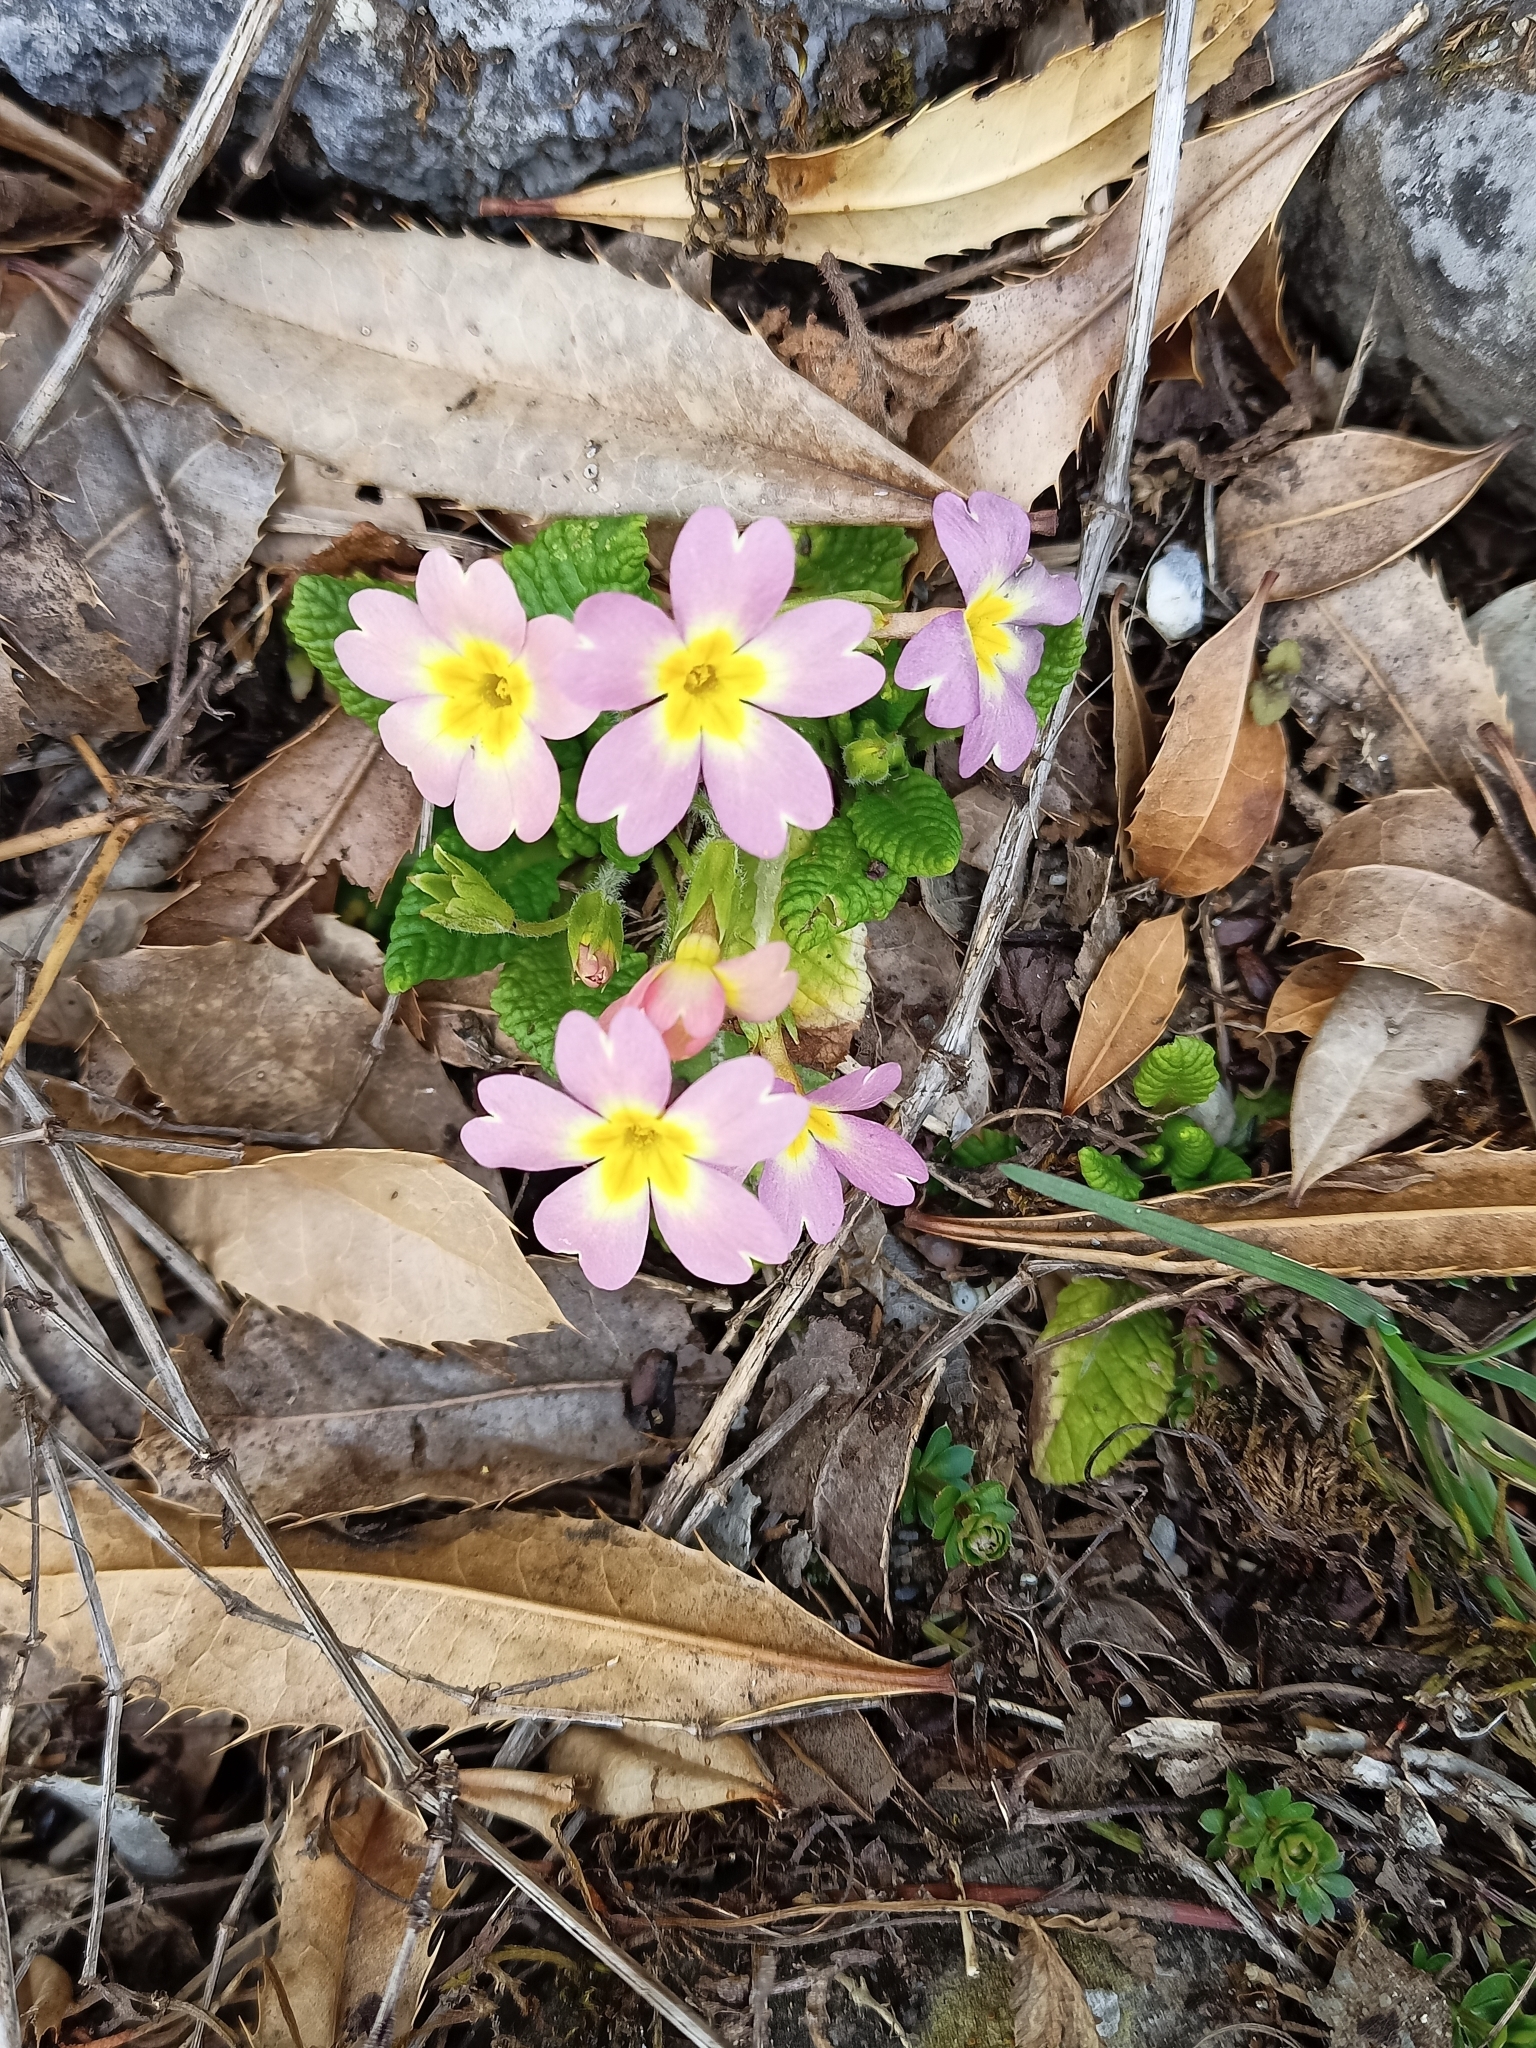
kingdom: Plantae
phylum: Tracheophyta
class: Magnoliopsida
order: Ericales
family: Primulaceae
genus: Primula
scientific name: Primula vulgaris
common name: Primrose
